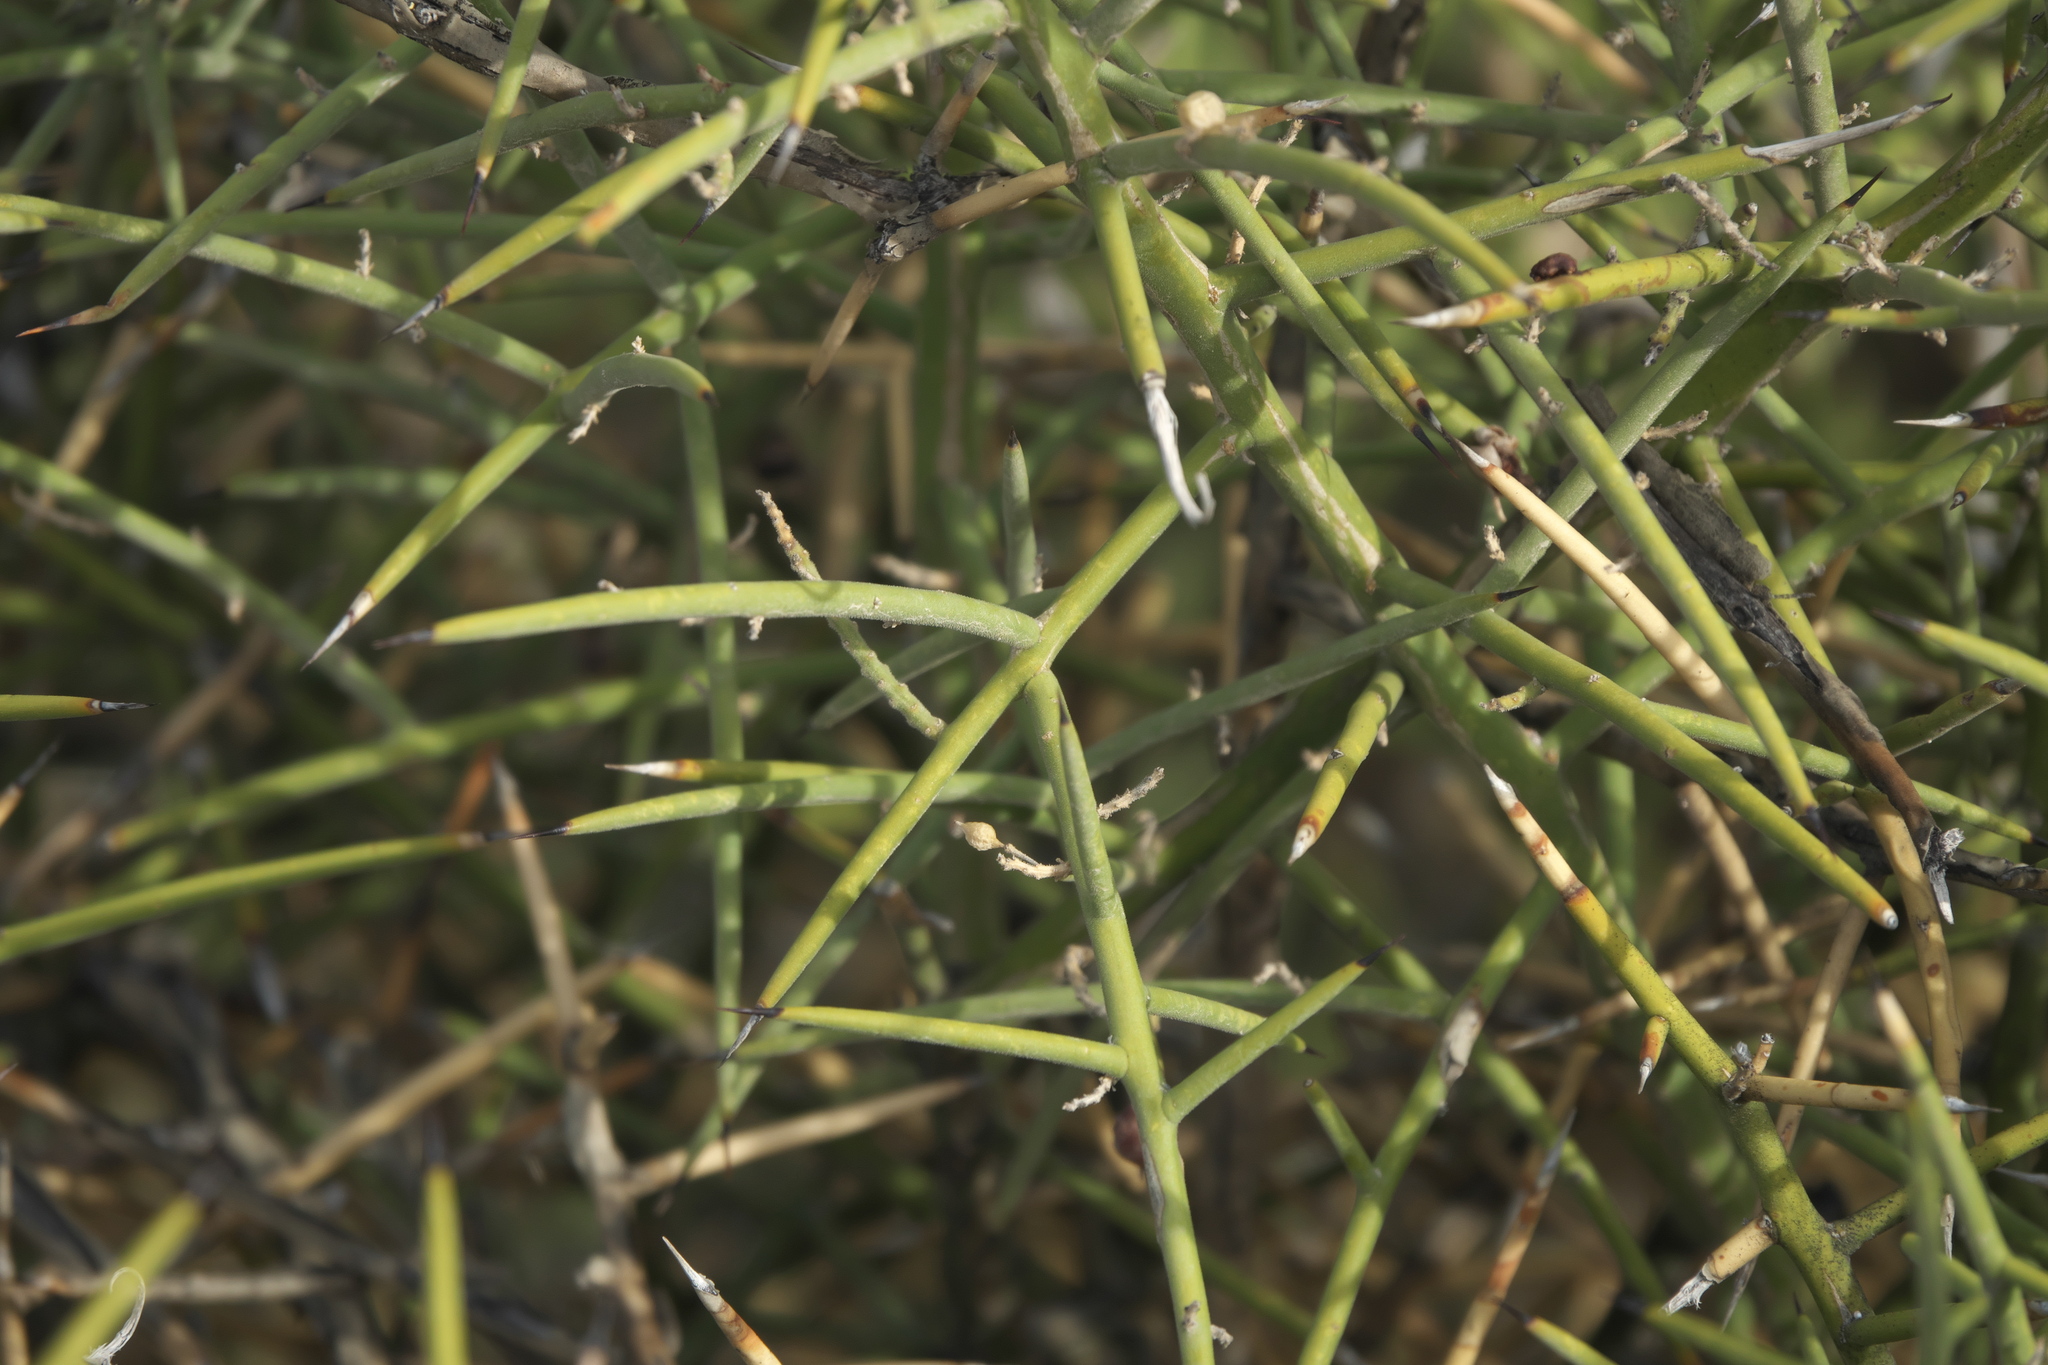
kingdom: Plantae
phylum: Tracheophyta
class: Magnoliopsida
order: Brassicales
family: Koeberliniaceae
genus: Koeberlinia
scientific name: Koeberlinia spinosa
